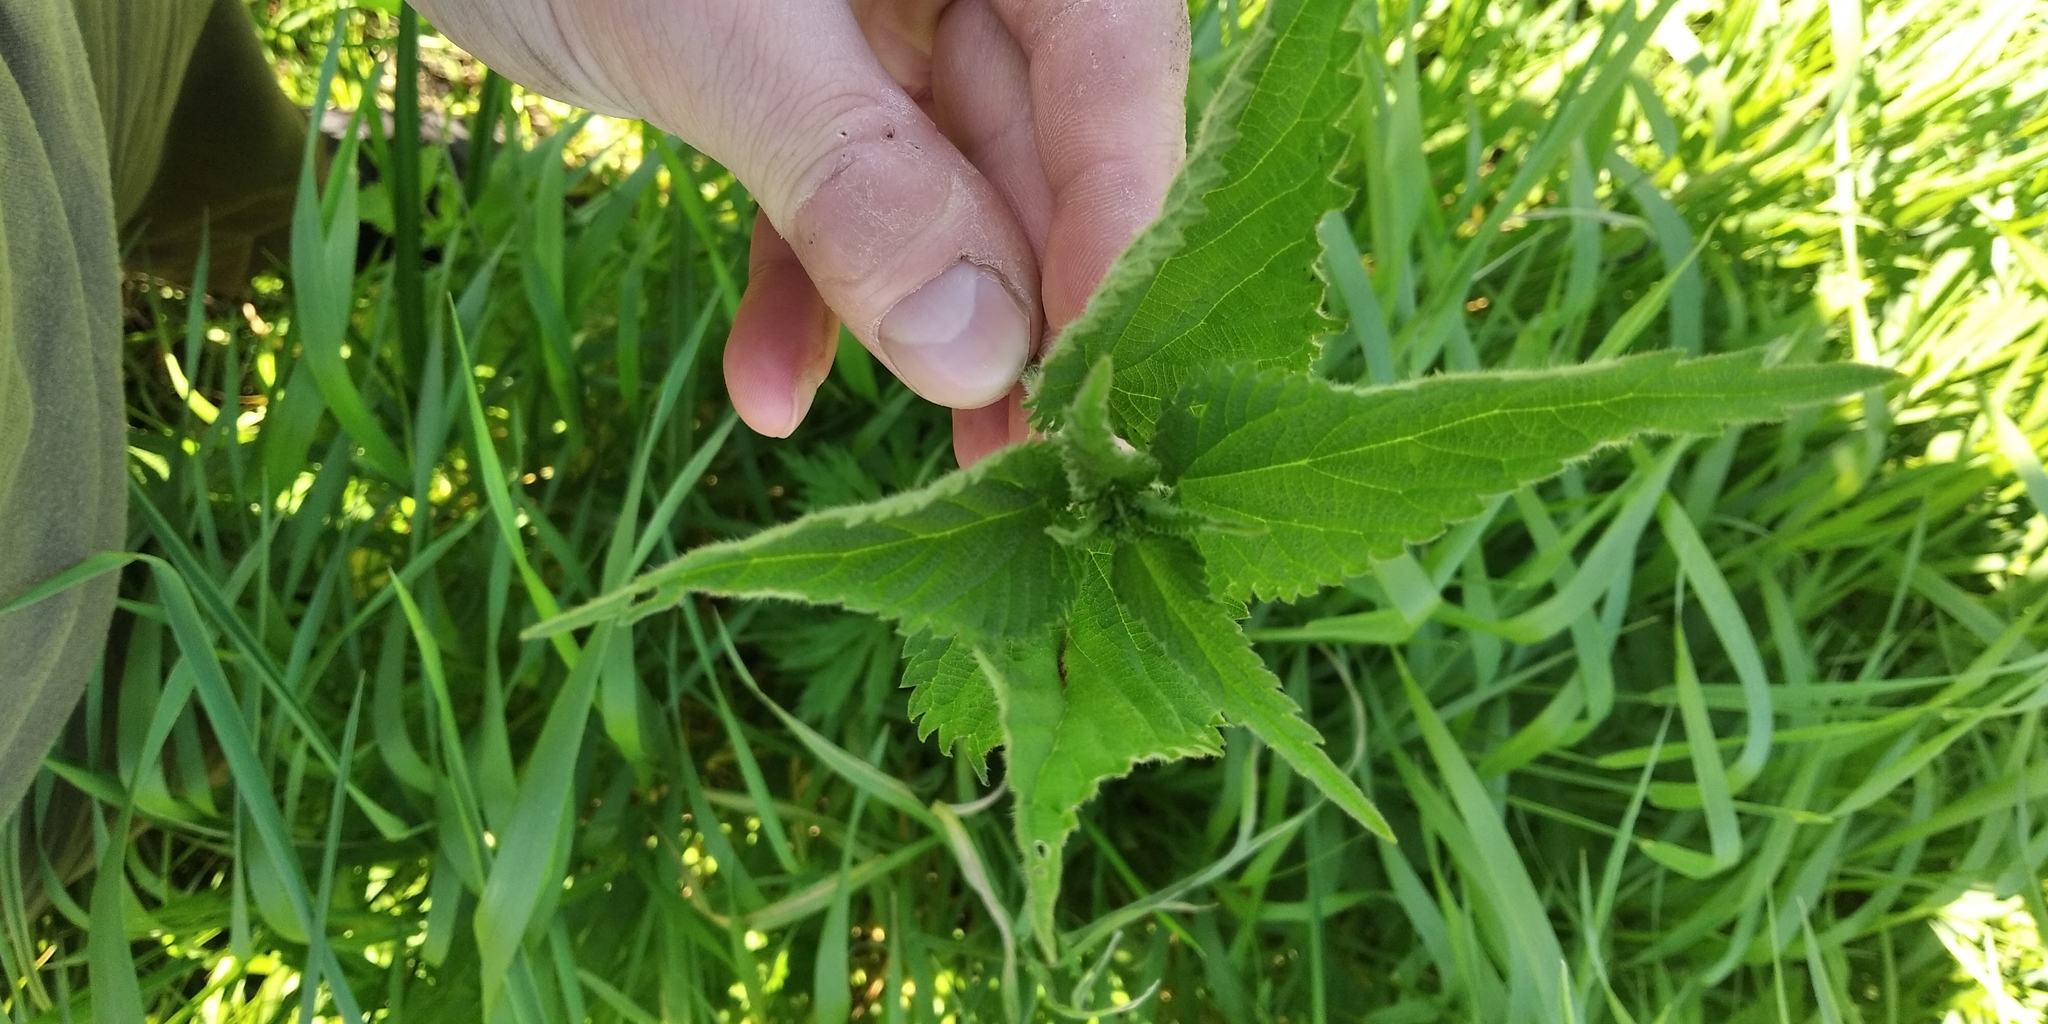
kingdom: Plantae
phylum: Tracheophyta
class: Magnoliopsida
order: Rosales
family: Urticaceae
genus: Urtica
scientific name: Urtica galeopsifolia
